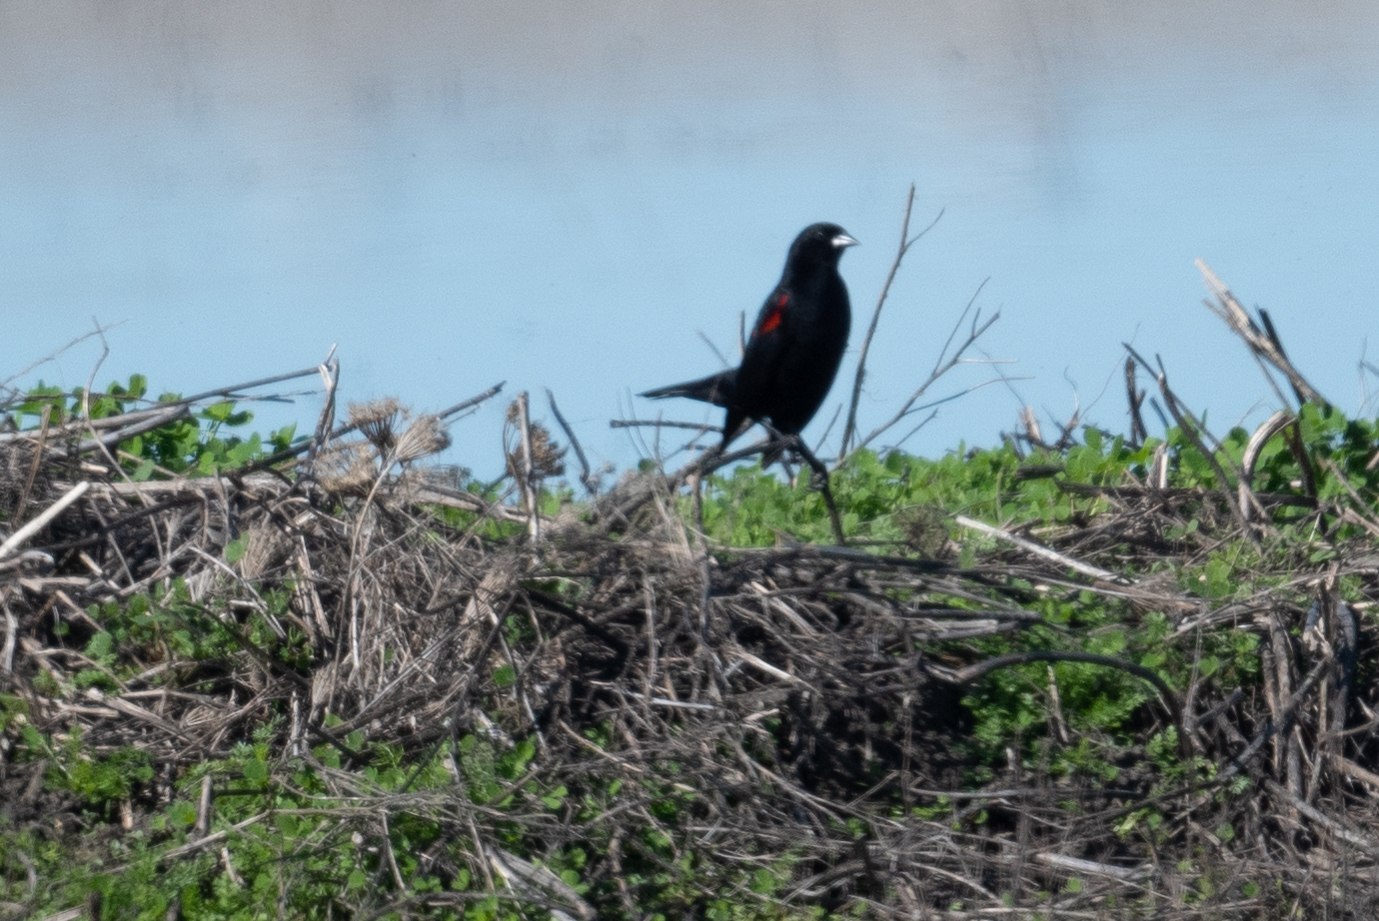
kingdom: Animalia
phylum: Chordata
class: Aves
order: Passeriformes
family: Icteridae
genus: Agelaius
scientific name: Agelaius phoeniceus
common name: Red-winged blackbird
